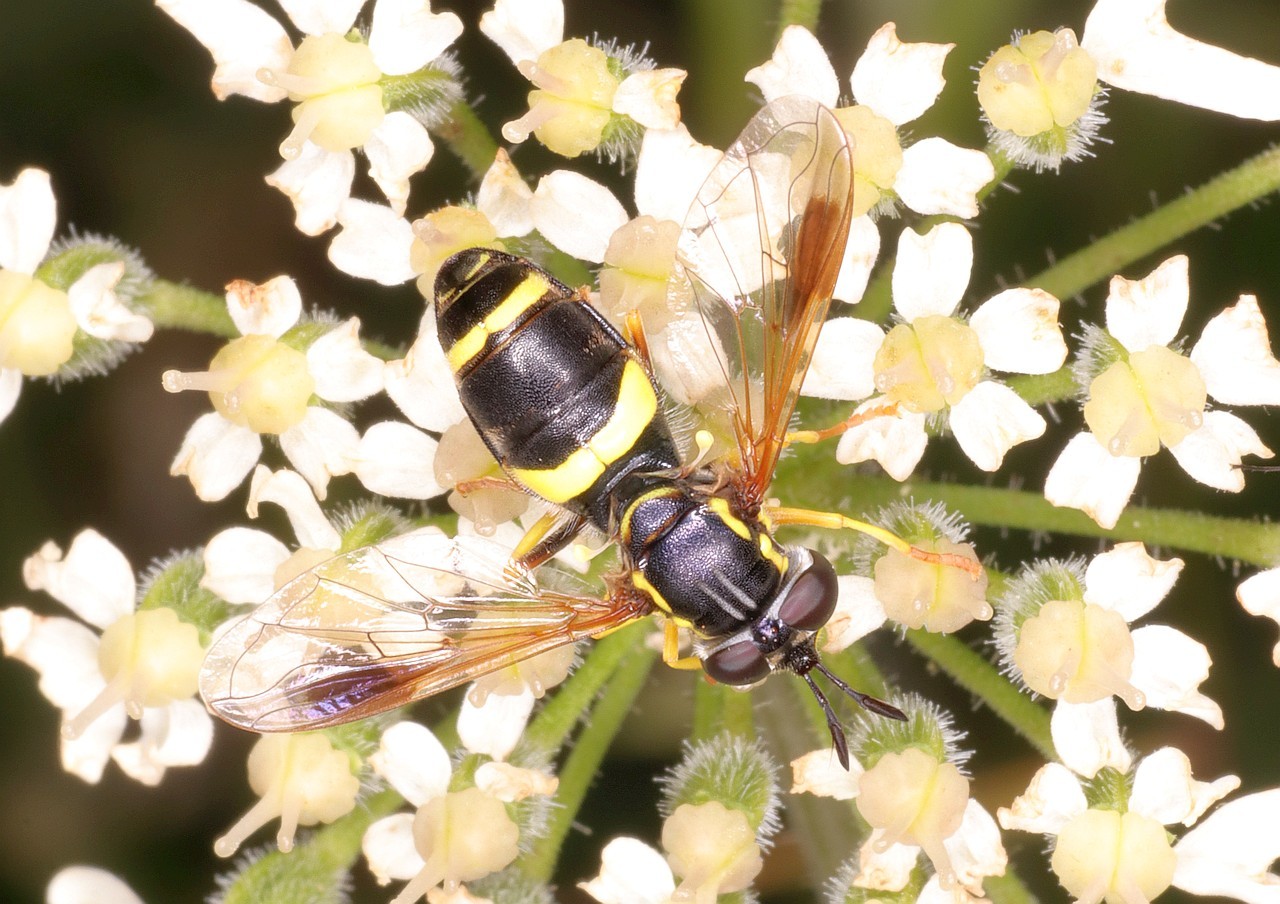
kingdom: Animalia
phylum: Arthropoda
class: Insecta
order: Diptera
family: Syrphidae
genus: Chrysotoxum
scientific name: Chrysotoxum bicincta
